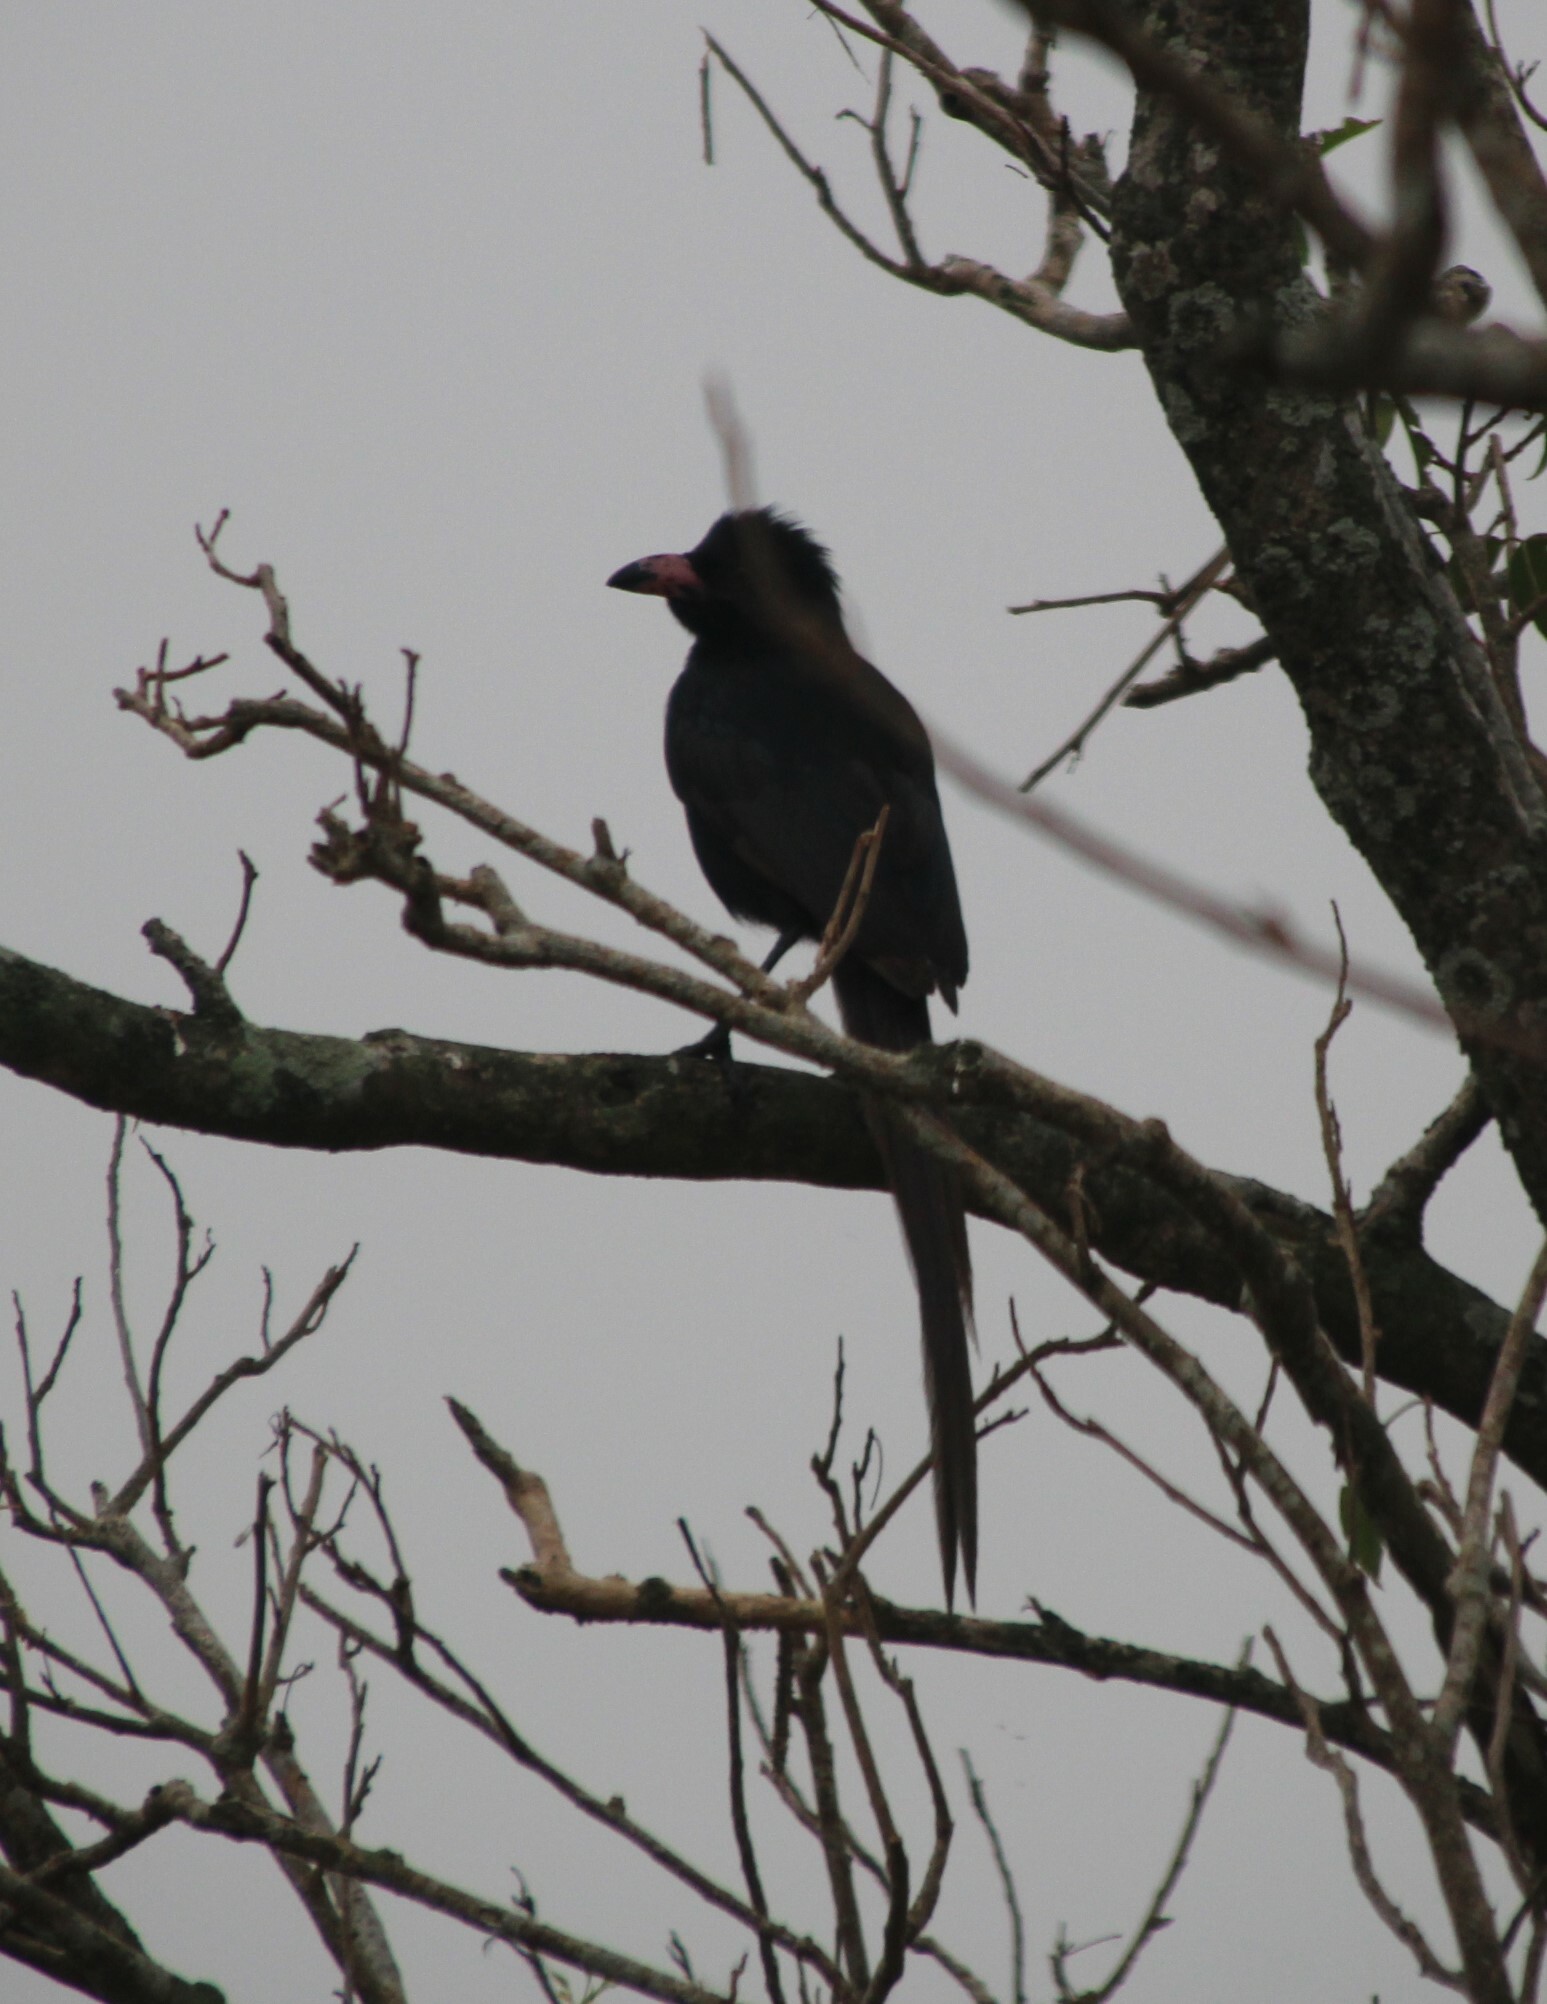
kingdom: Animalia
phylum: Chordata
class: Aves
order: Passeriformes
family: Corvidae
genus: Ptilostomus
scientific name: Ptilostomus afer
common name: Piapiac
